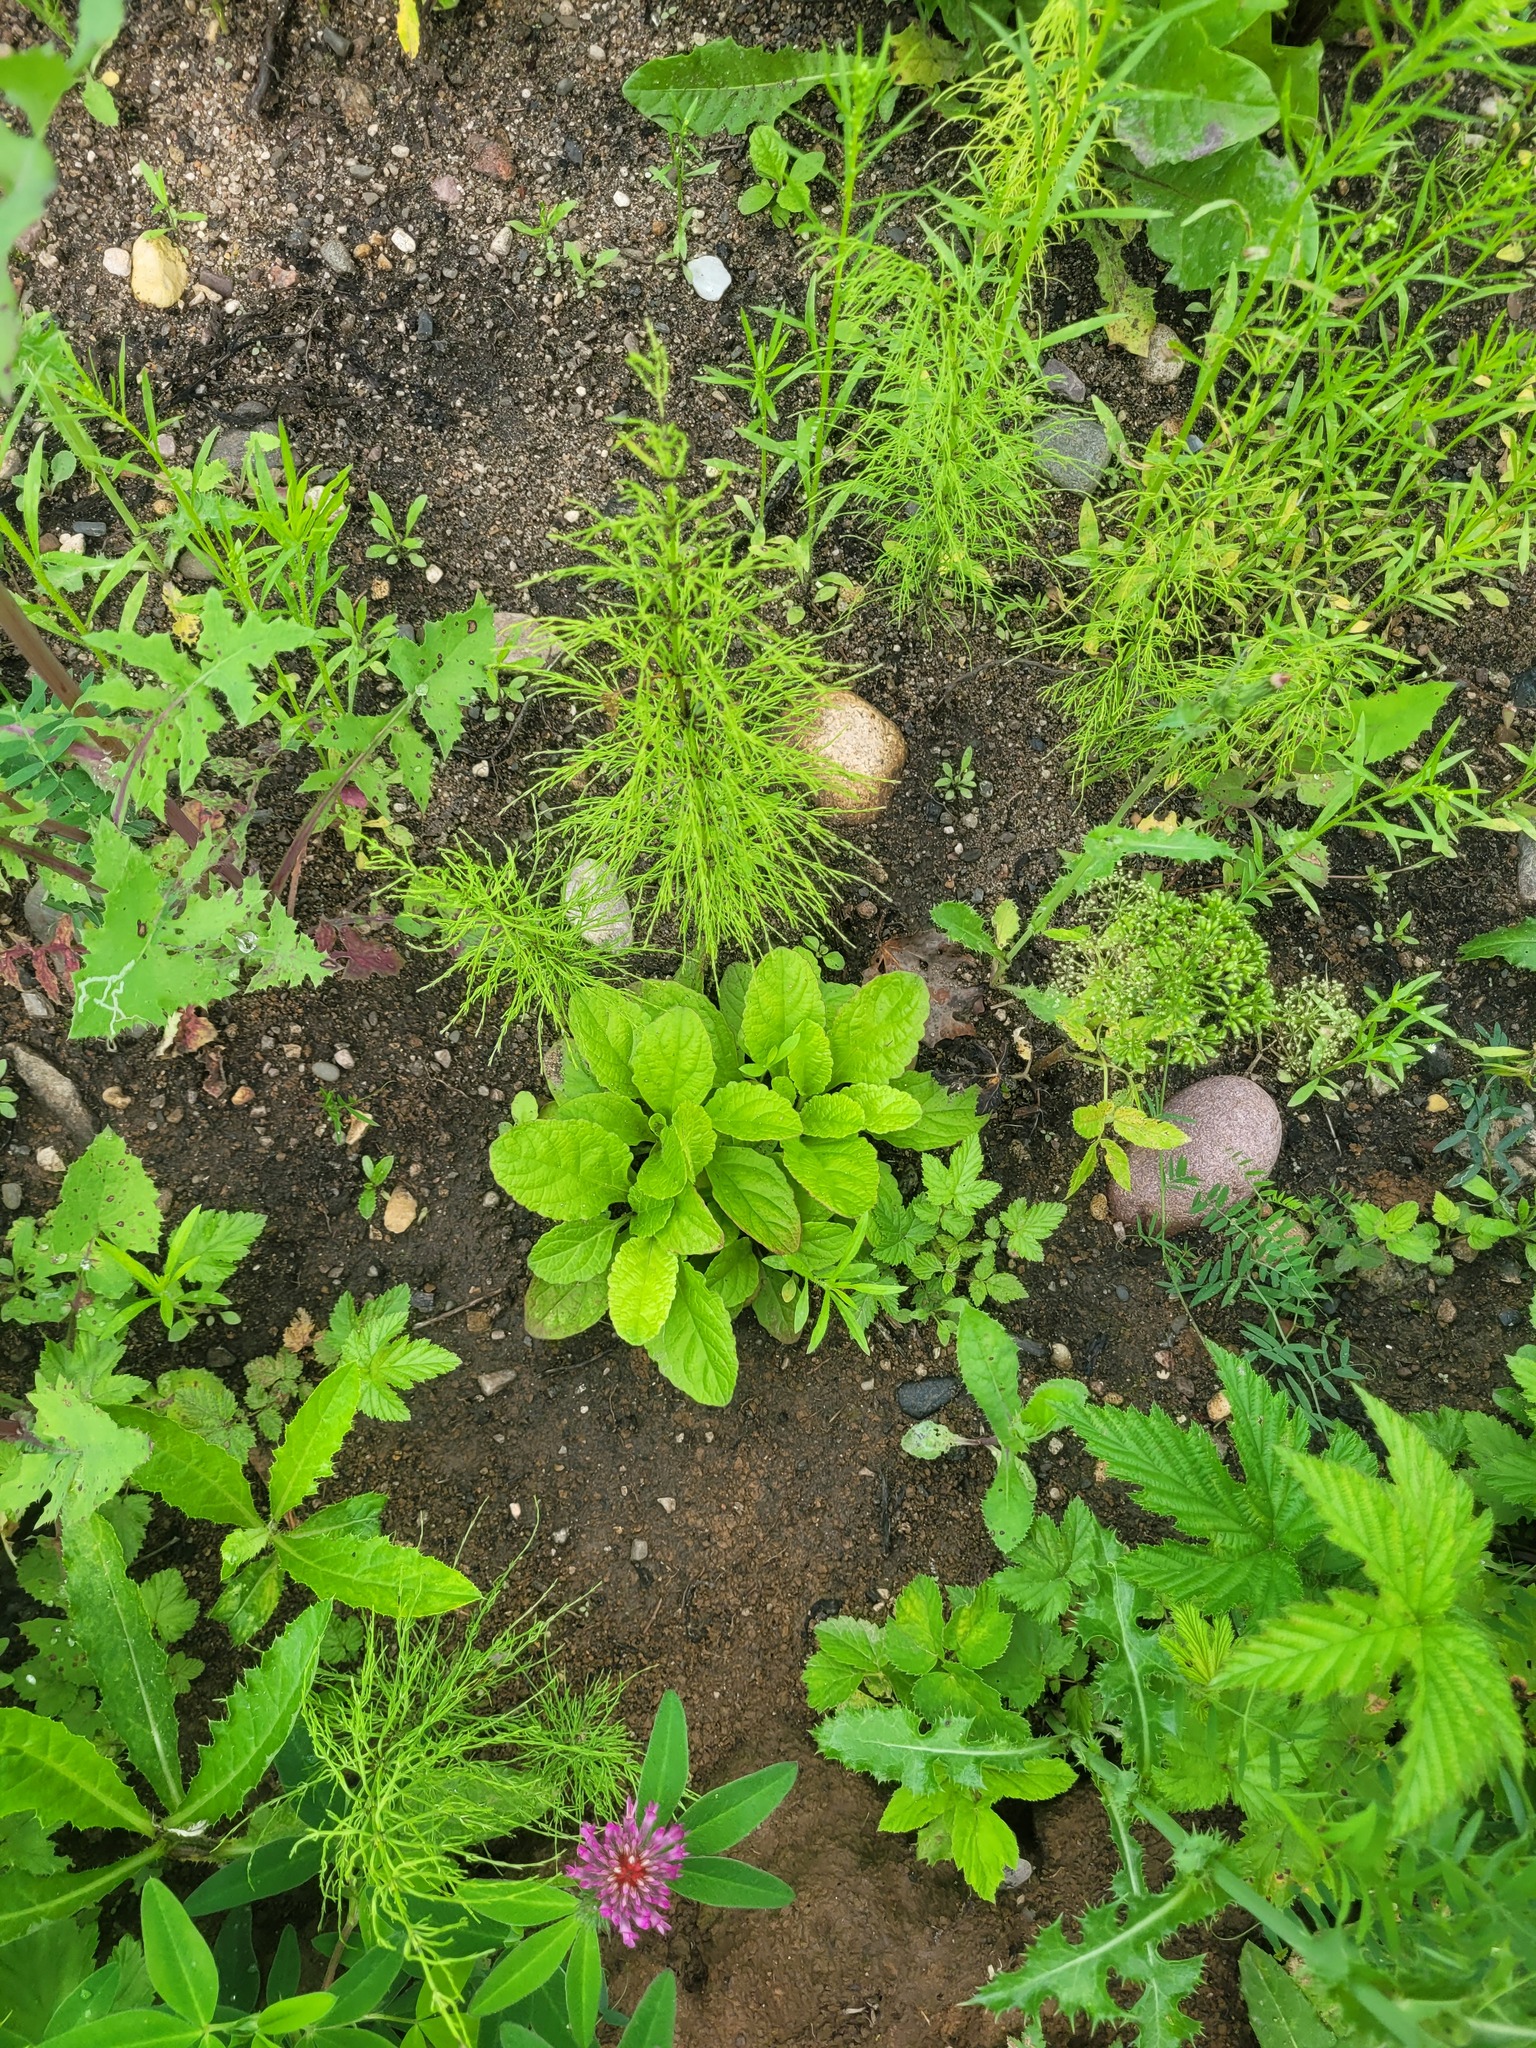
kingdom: Plantae
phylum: Tracheophyta
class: Magnoliopsida
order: Lamiales
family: Lamiaceae
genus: Ajuga
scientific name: Ajuga reptans
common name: Bugle
